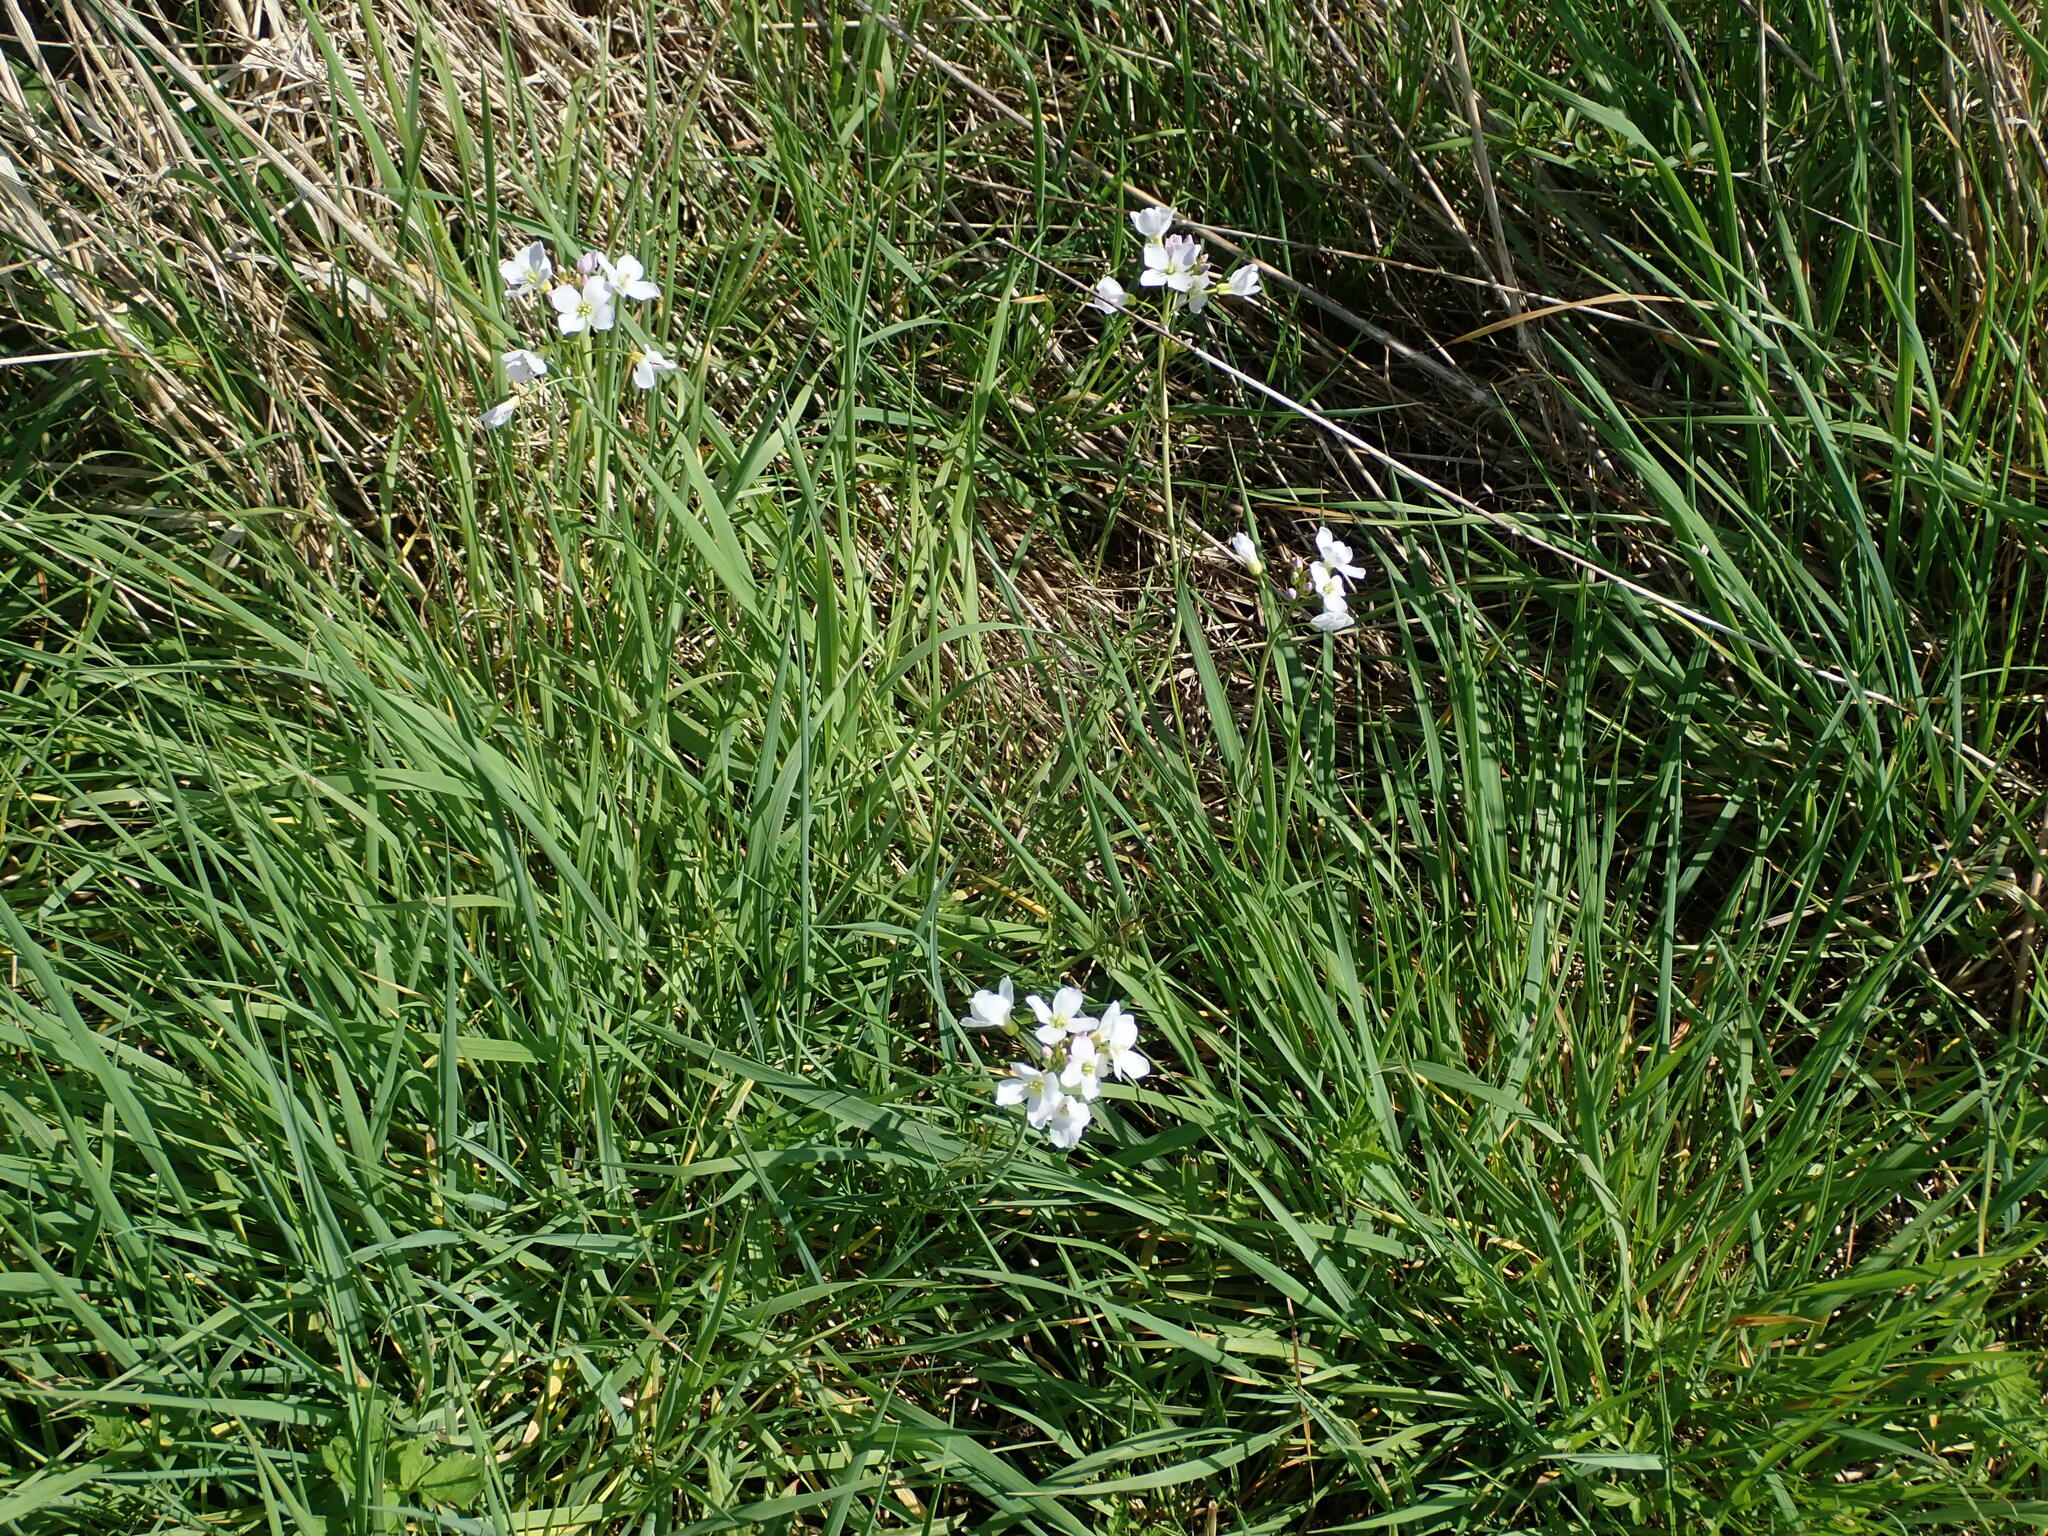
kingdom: Plantae
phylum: Tracheophyta
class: Magnoliopsida
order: Brassicales
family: Brassicaceae
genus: Cardamine
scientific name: Cardamine pratensis
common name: Cuckoo flower
